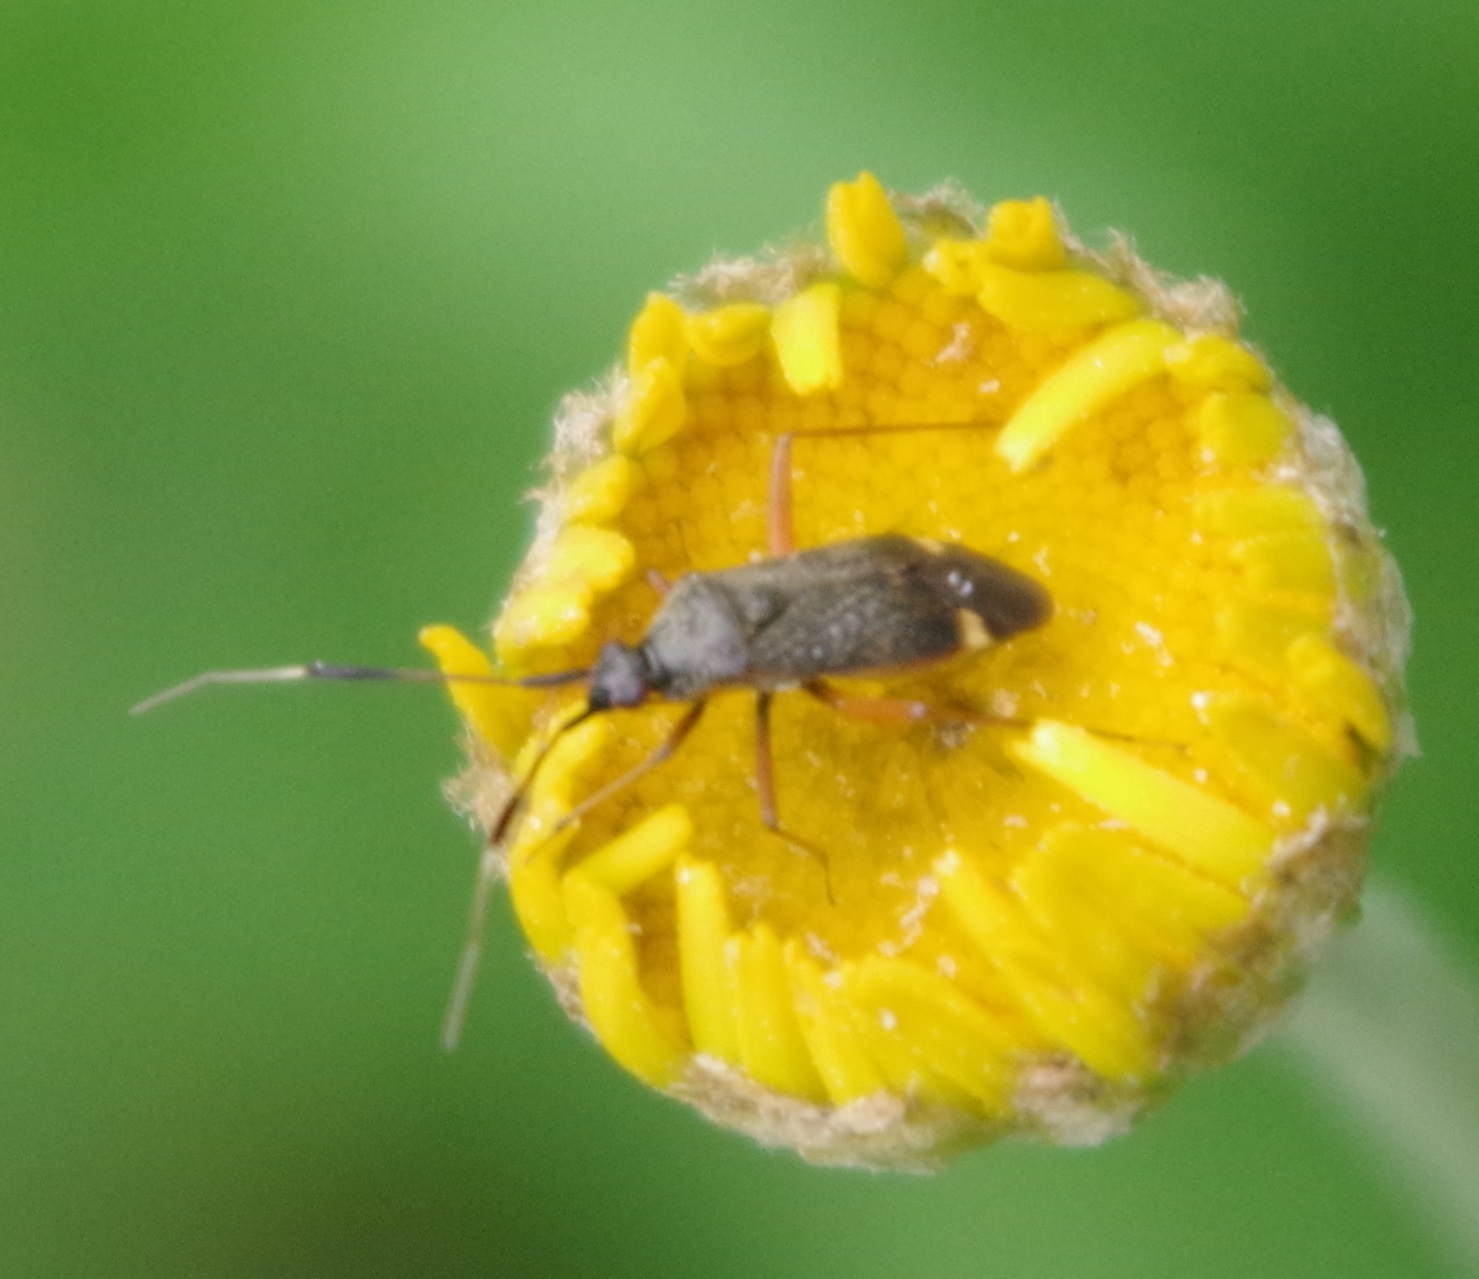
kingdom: Animalia
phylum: Arthropoda
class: Insecta
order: Hemiptera
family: Miridae
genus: Closterotomus
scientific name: Closterotomus biclavatus
